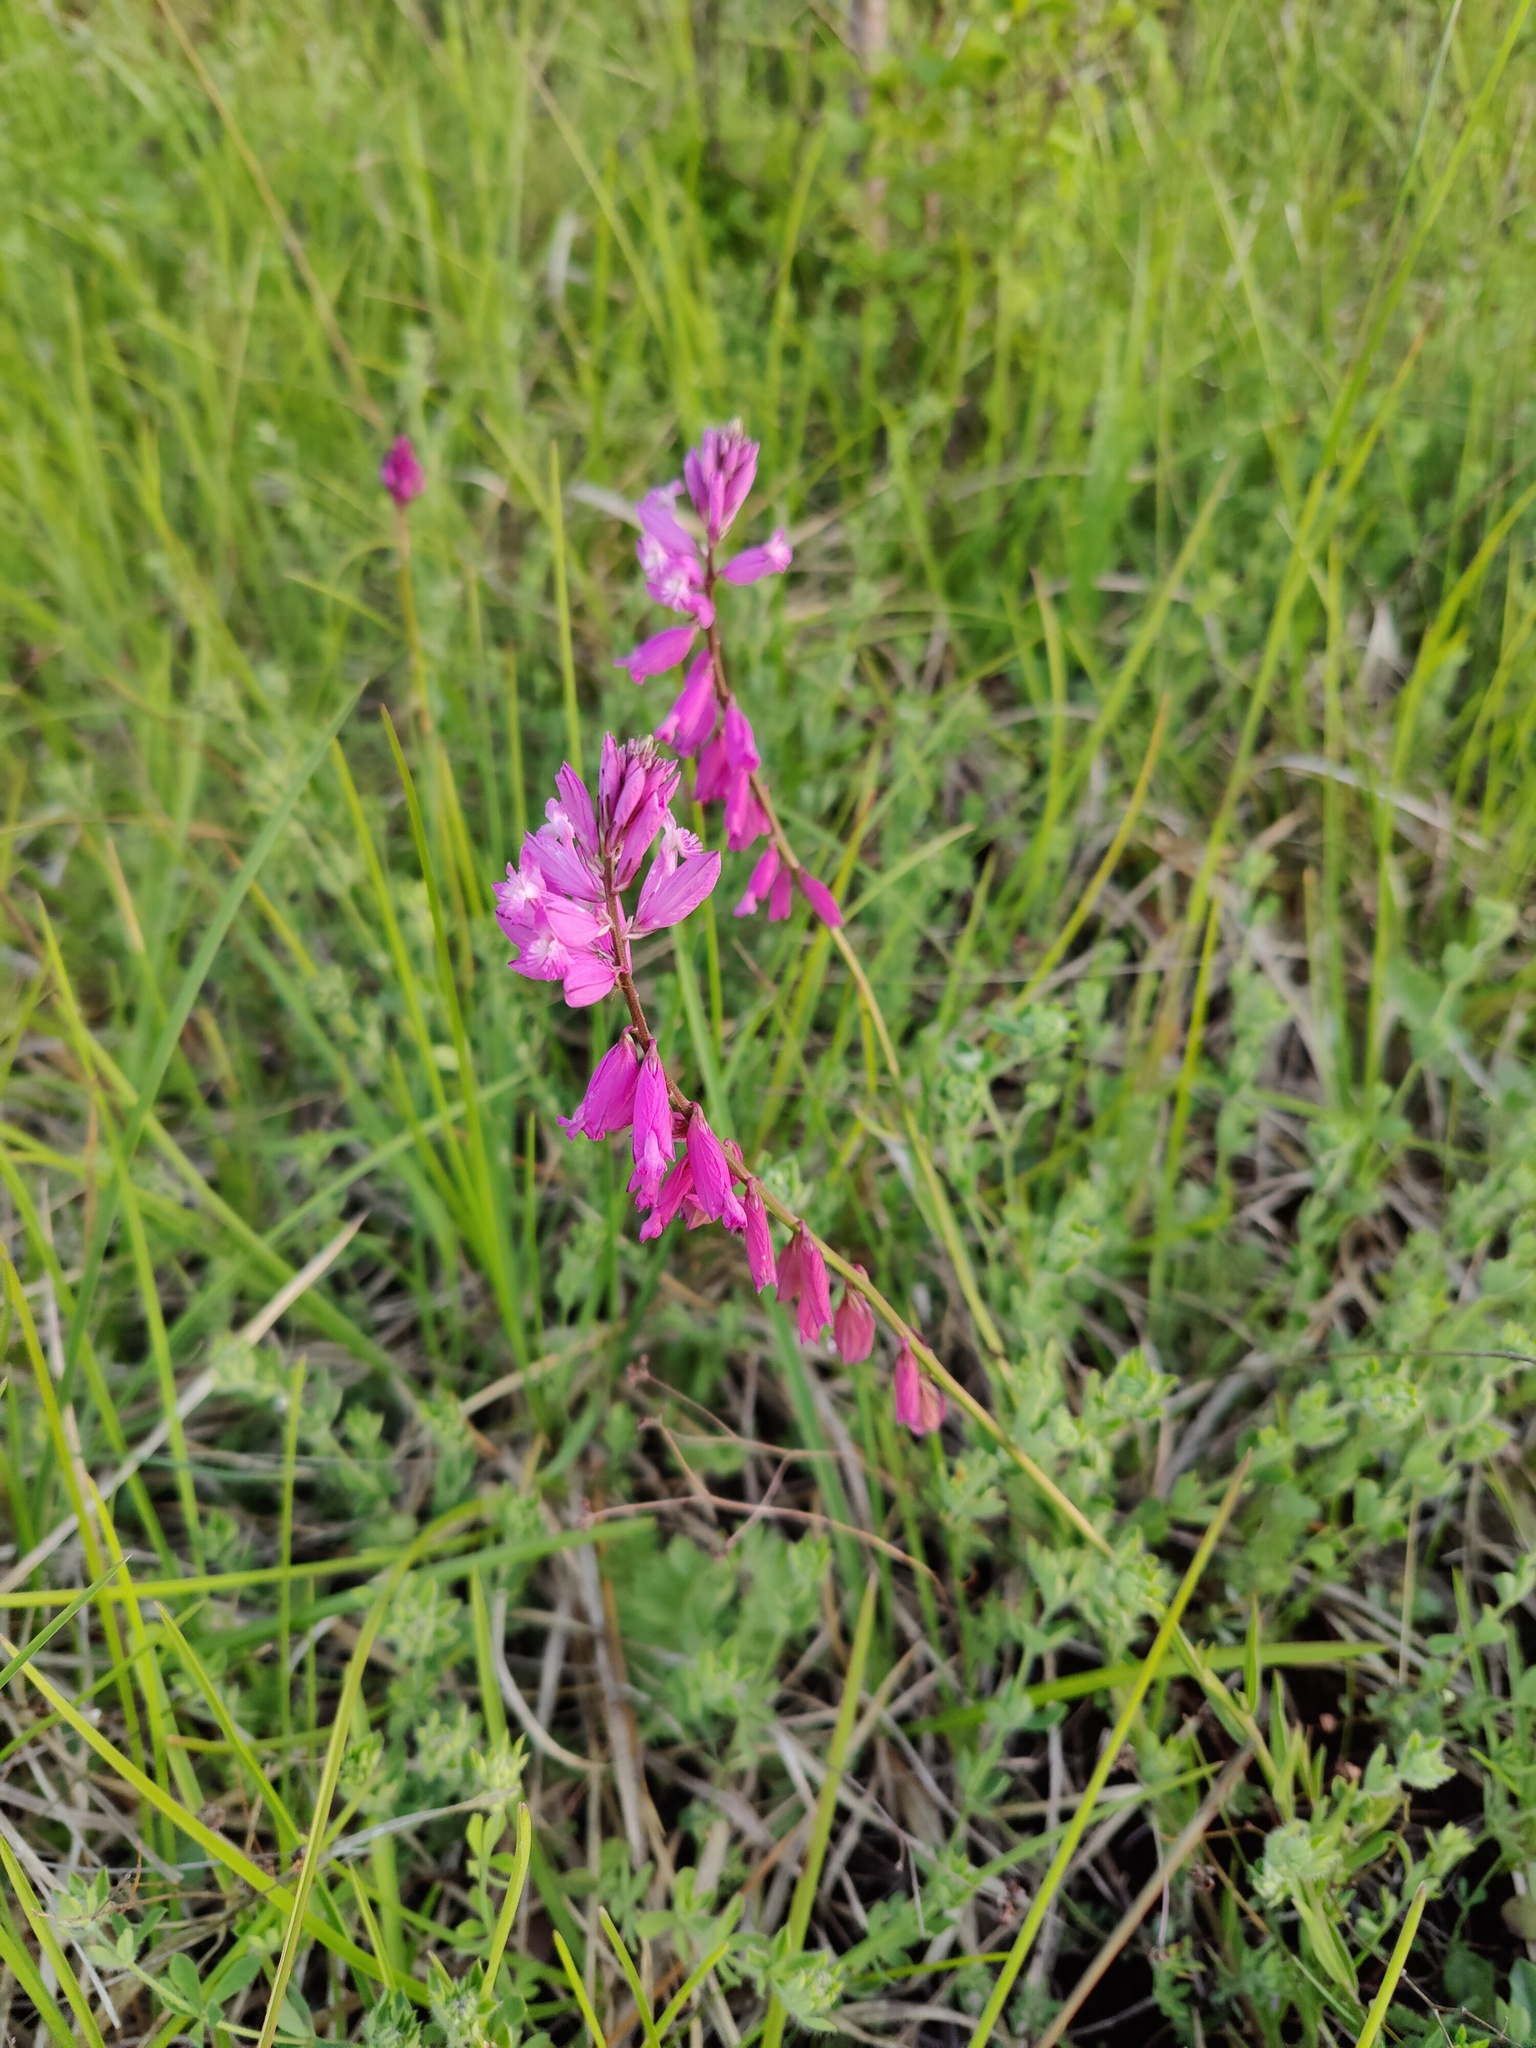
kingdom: Plantae
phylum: Tracheophyta
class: Magnoliopsida
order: Fabales
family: Polygalaceae
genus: Polygala
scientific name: Polygala major
